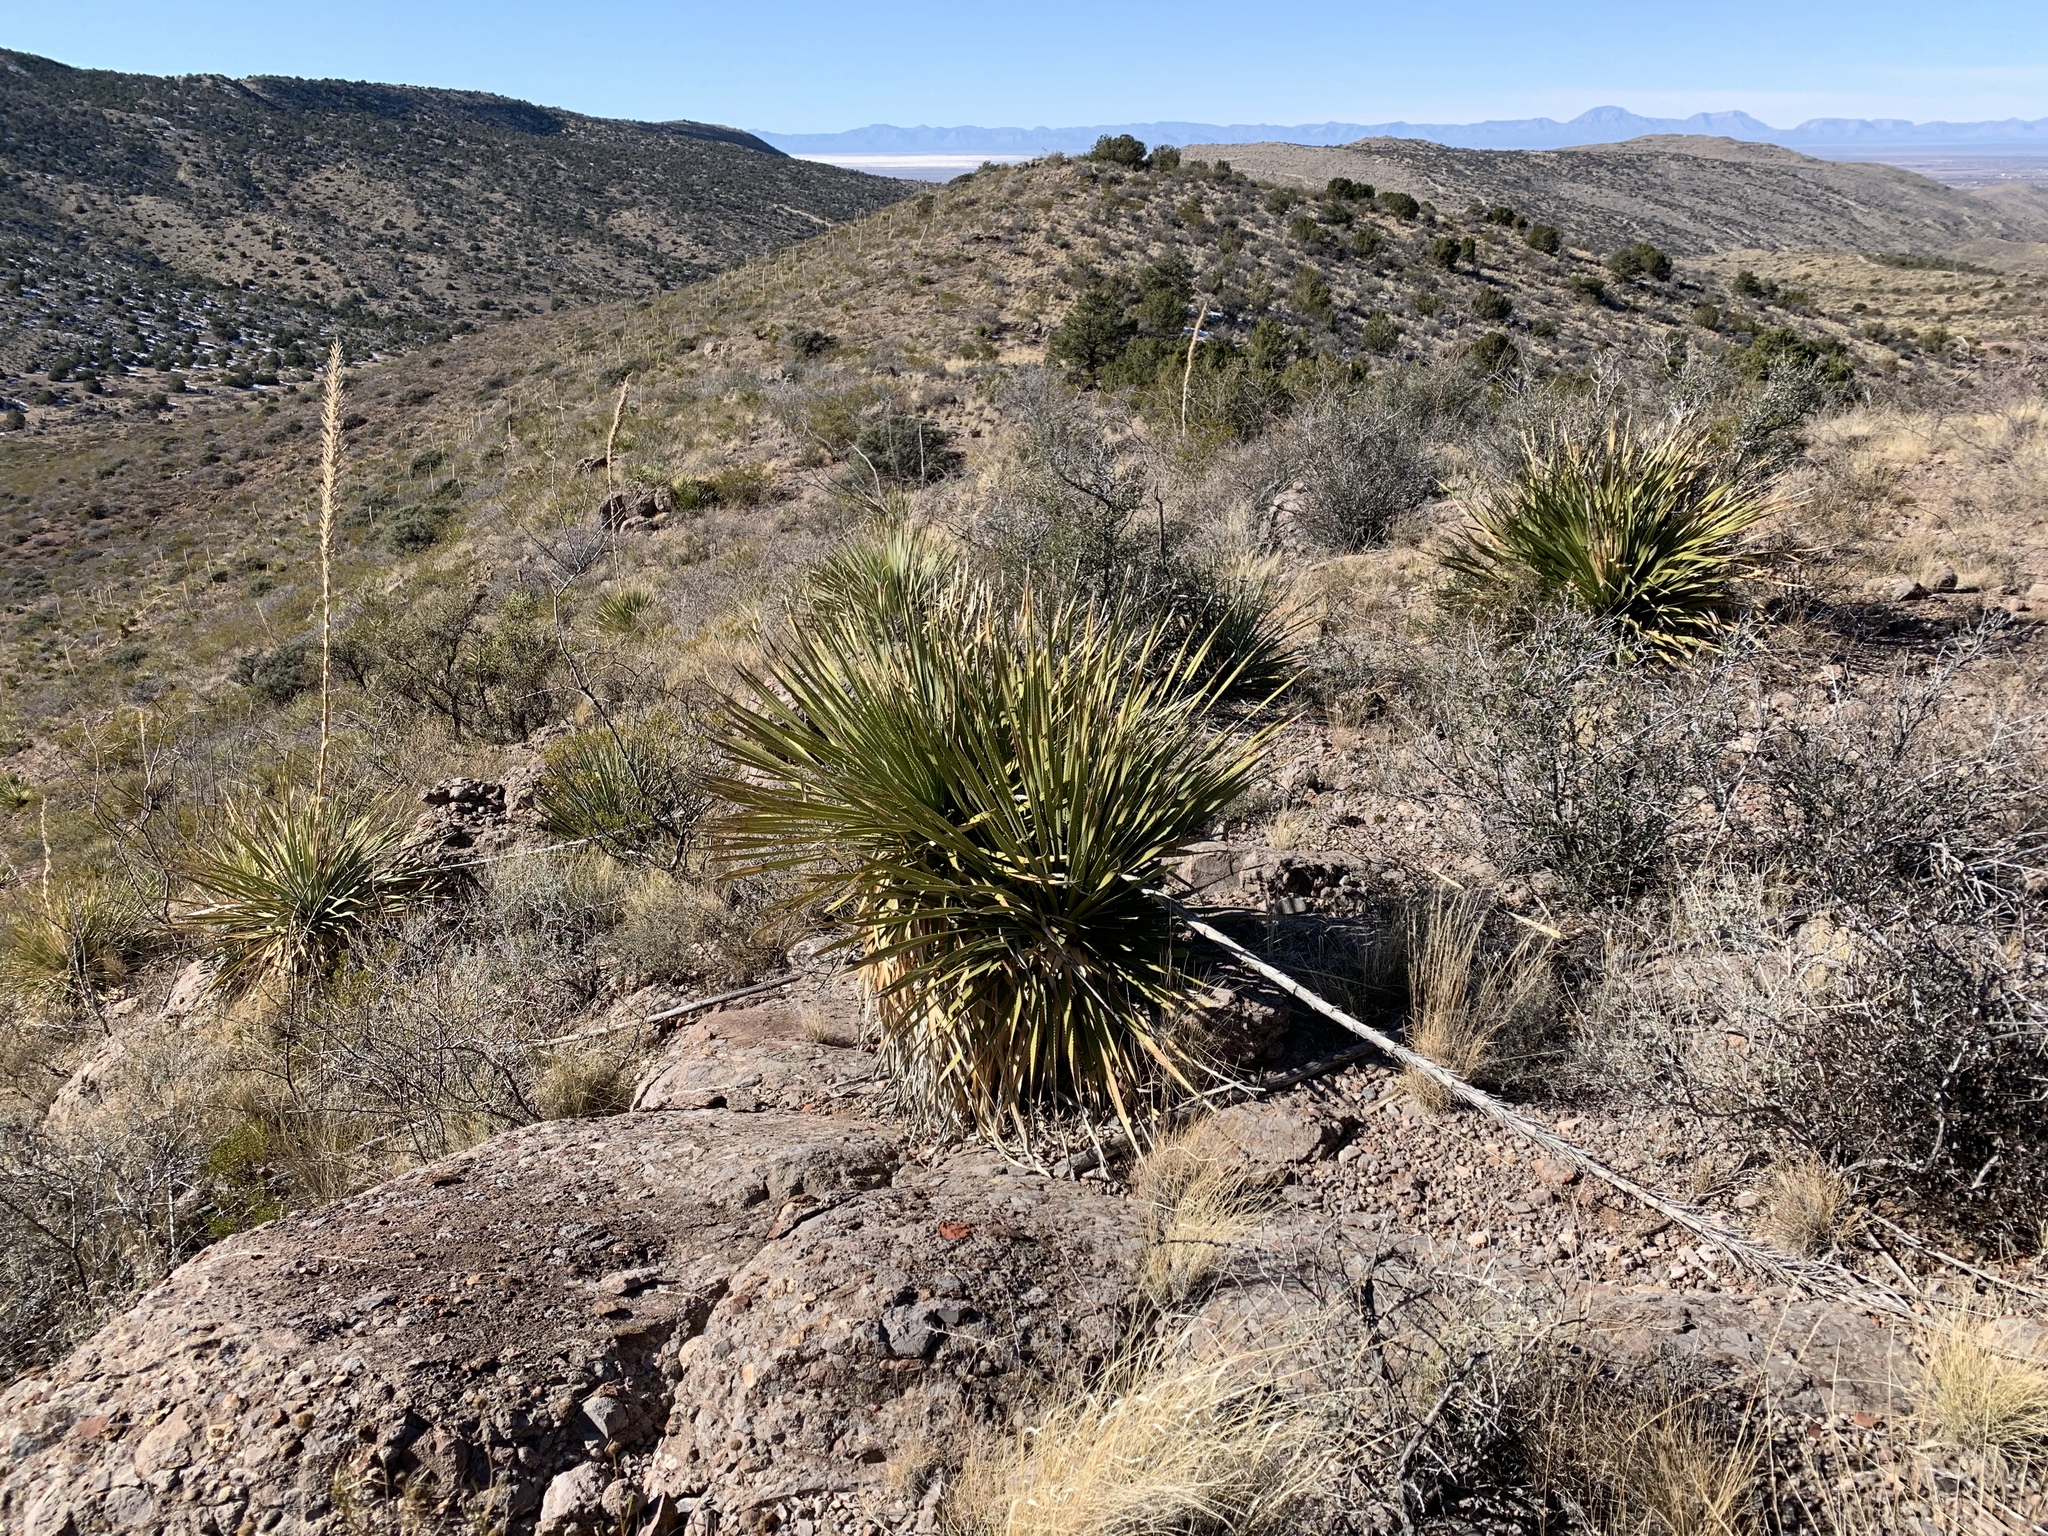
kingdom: Plantae
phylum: Tracheophyta
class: Liliopsida
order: Asparagales
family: Asparagaceae
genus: Dasylirion
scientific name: Dasylirion wheeleri
